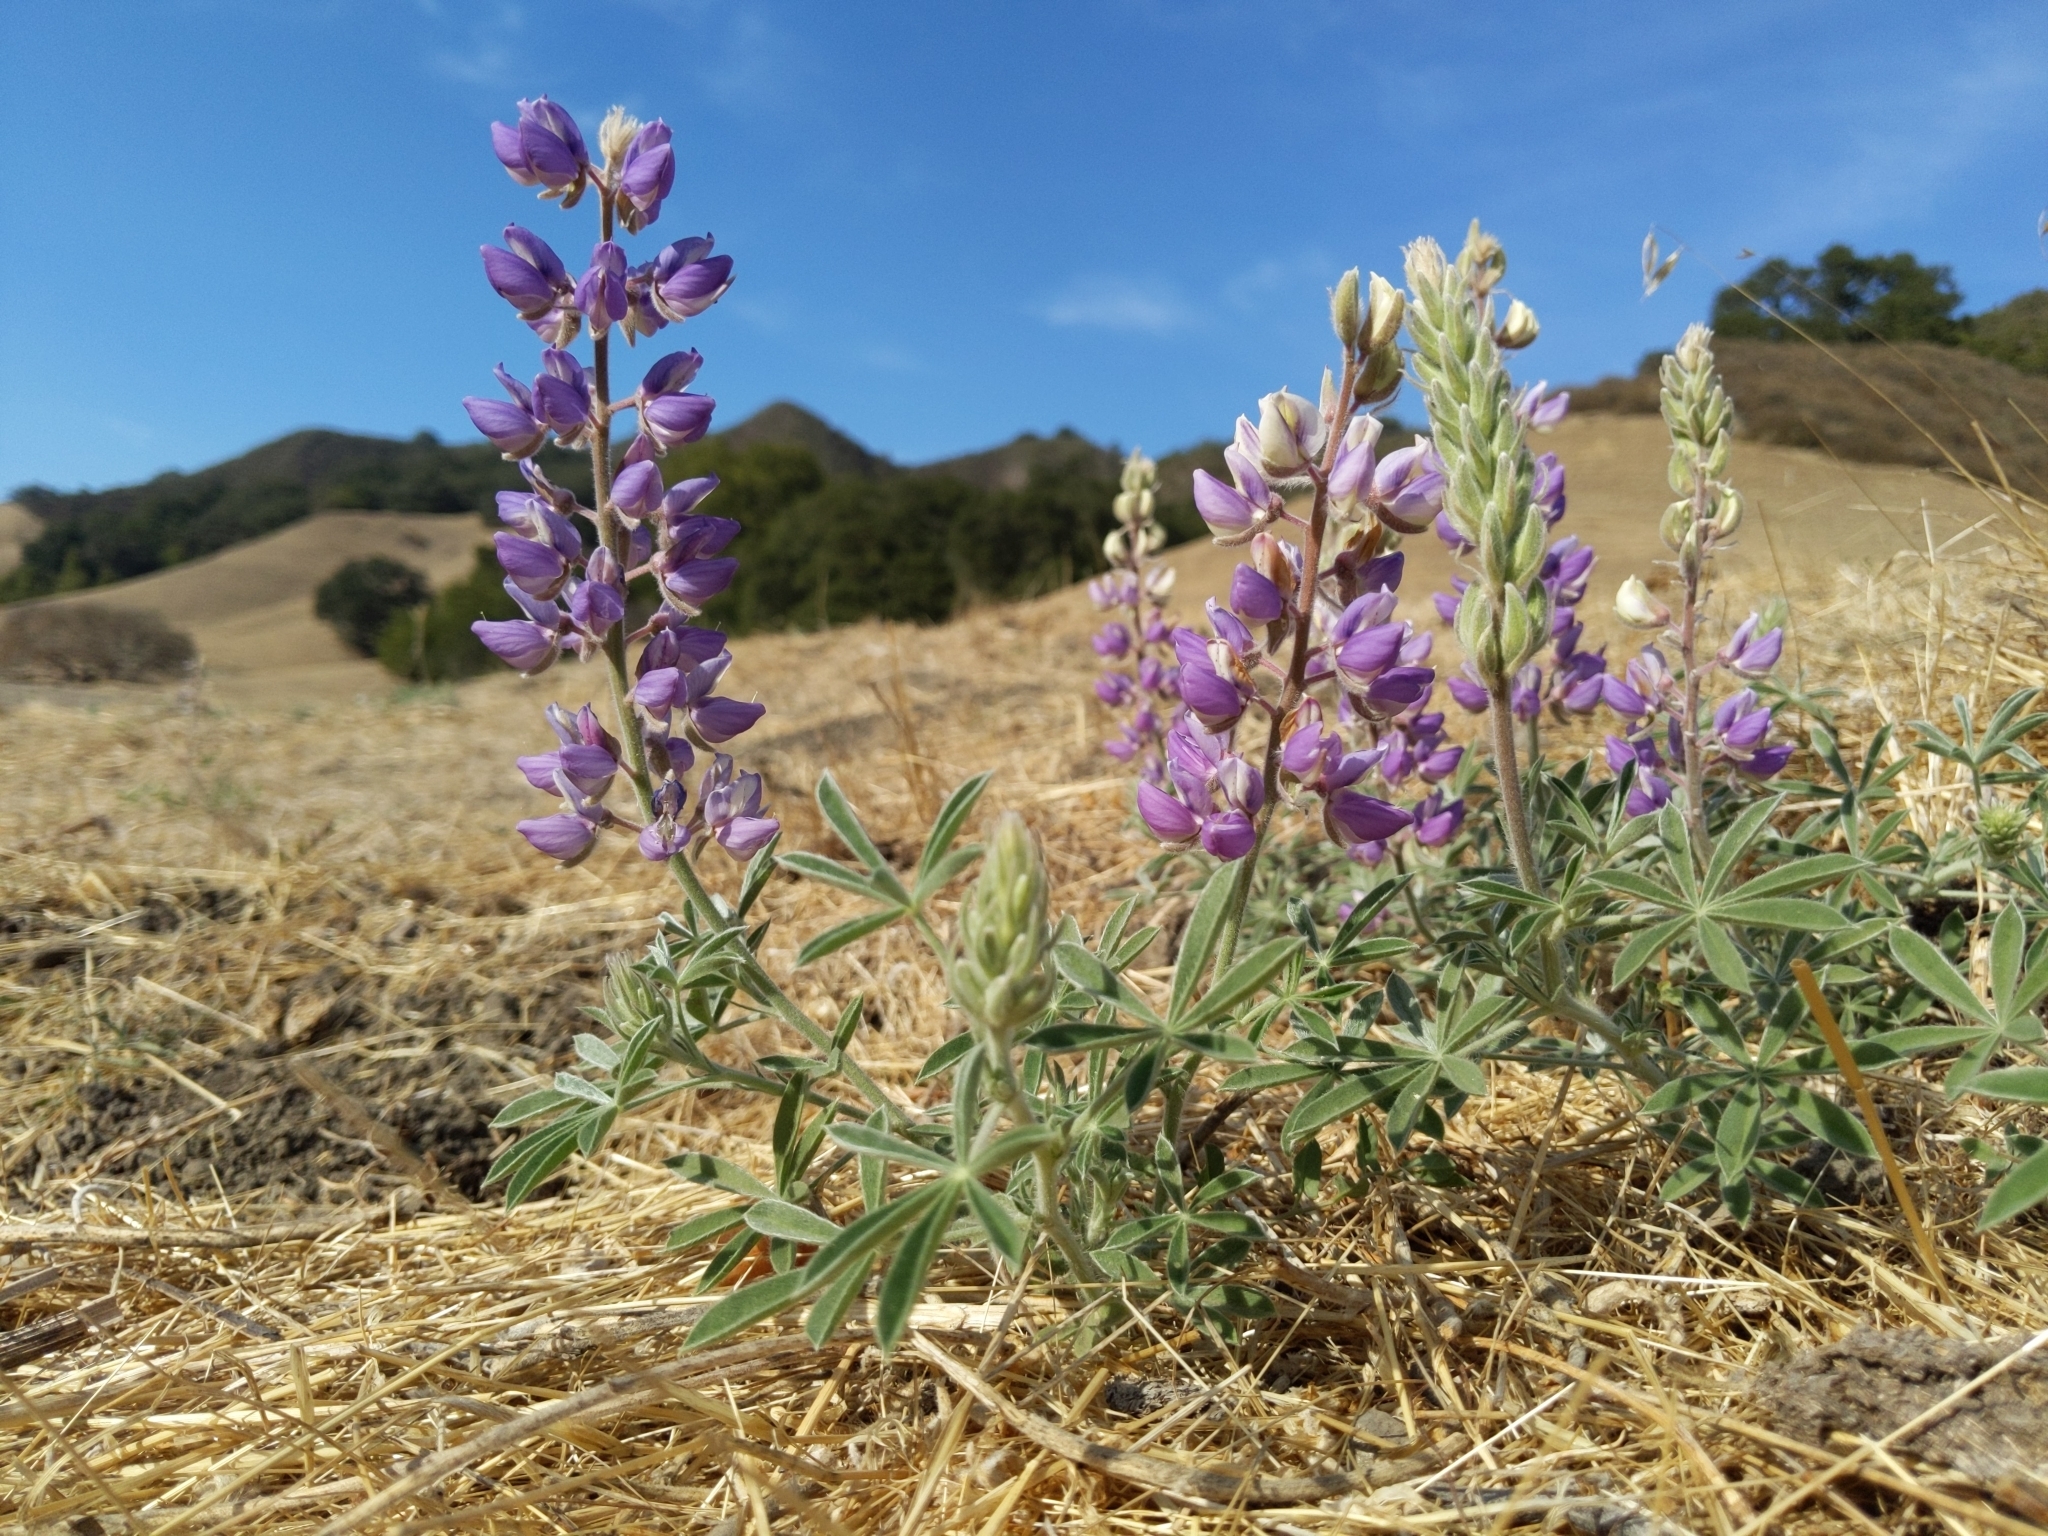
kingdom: Plantae
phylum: Tracheophyta
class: Magnoliopsida
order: Fabales
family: Fabaceae
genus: Lupinus
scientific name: Lupinus formosus
